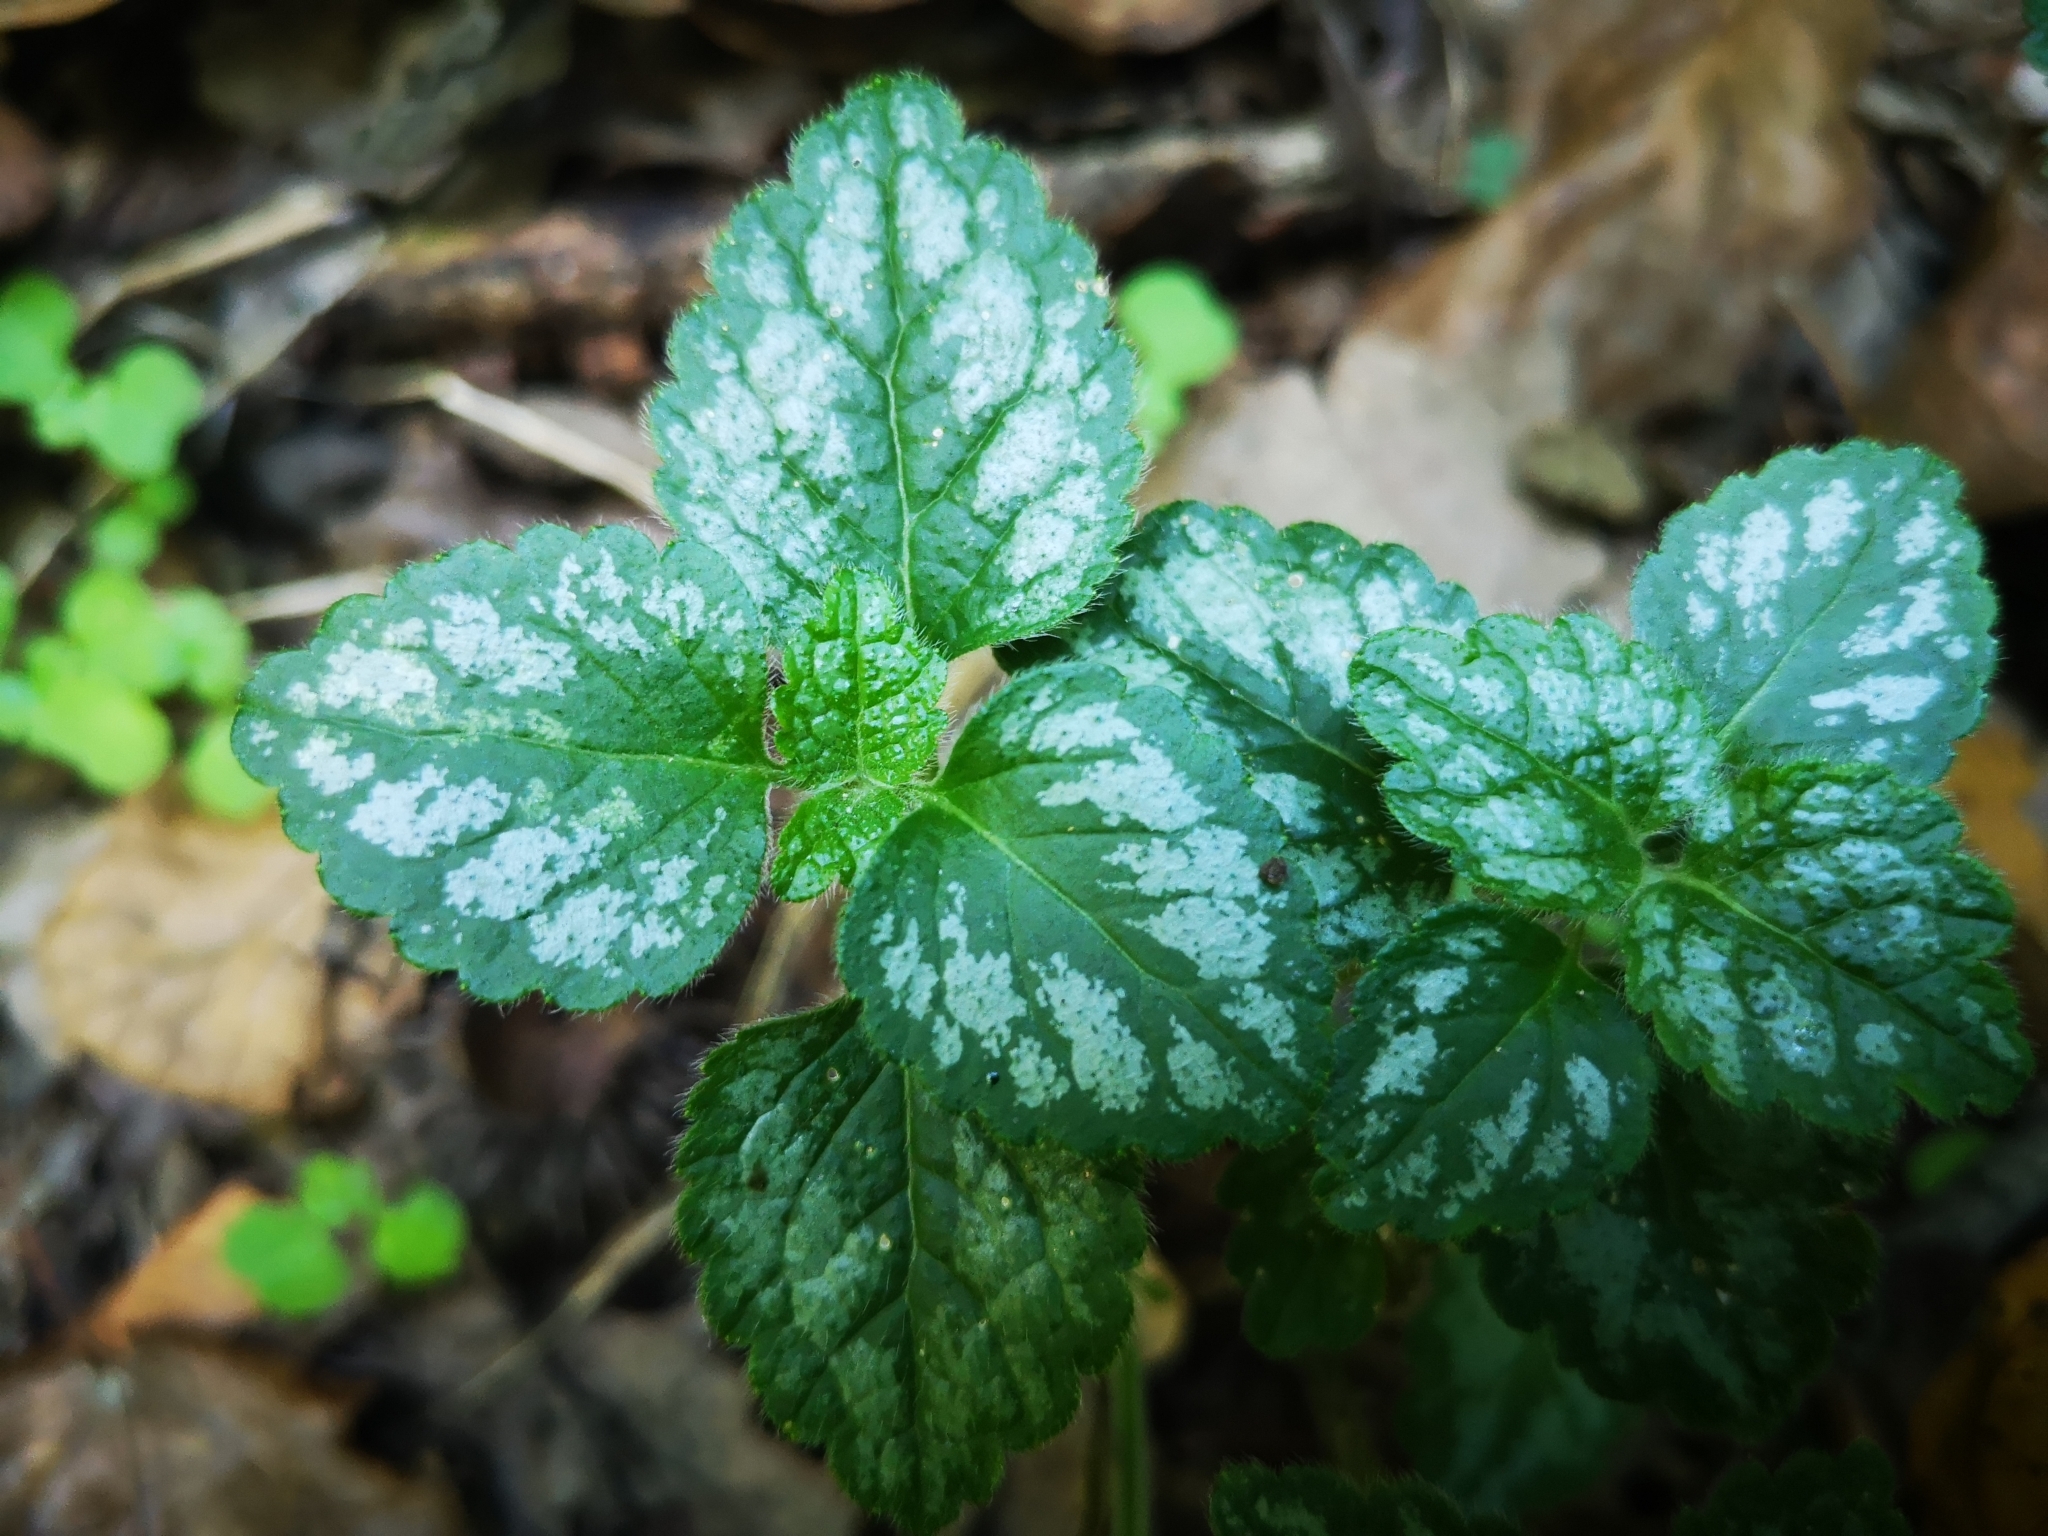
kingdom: Plantae
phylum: Tracheophyta
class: Magnoliopsida
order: Lamiales
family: Lamiaceae
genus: Lamium
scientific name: Lamium galeobdolon
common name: Yellow archangel
